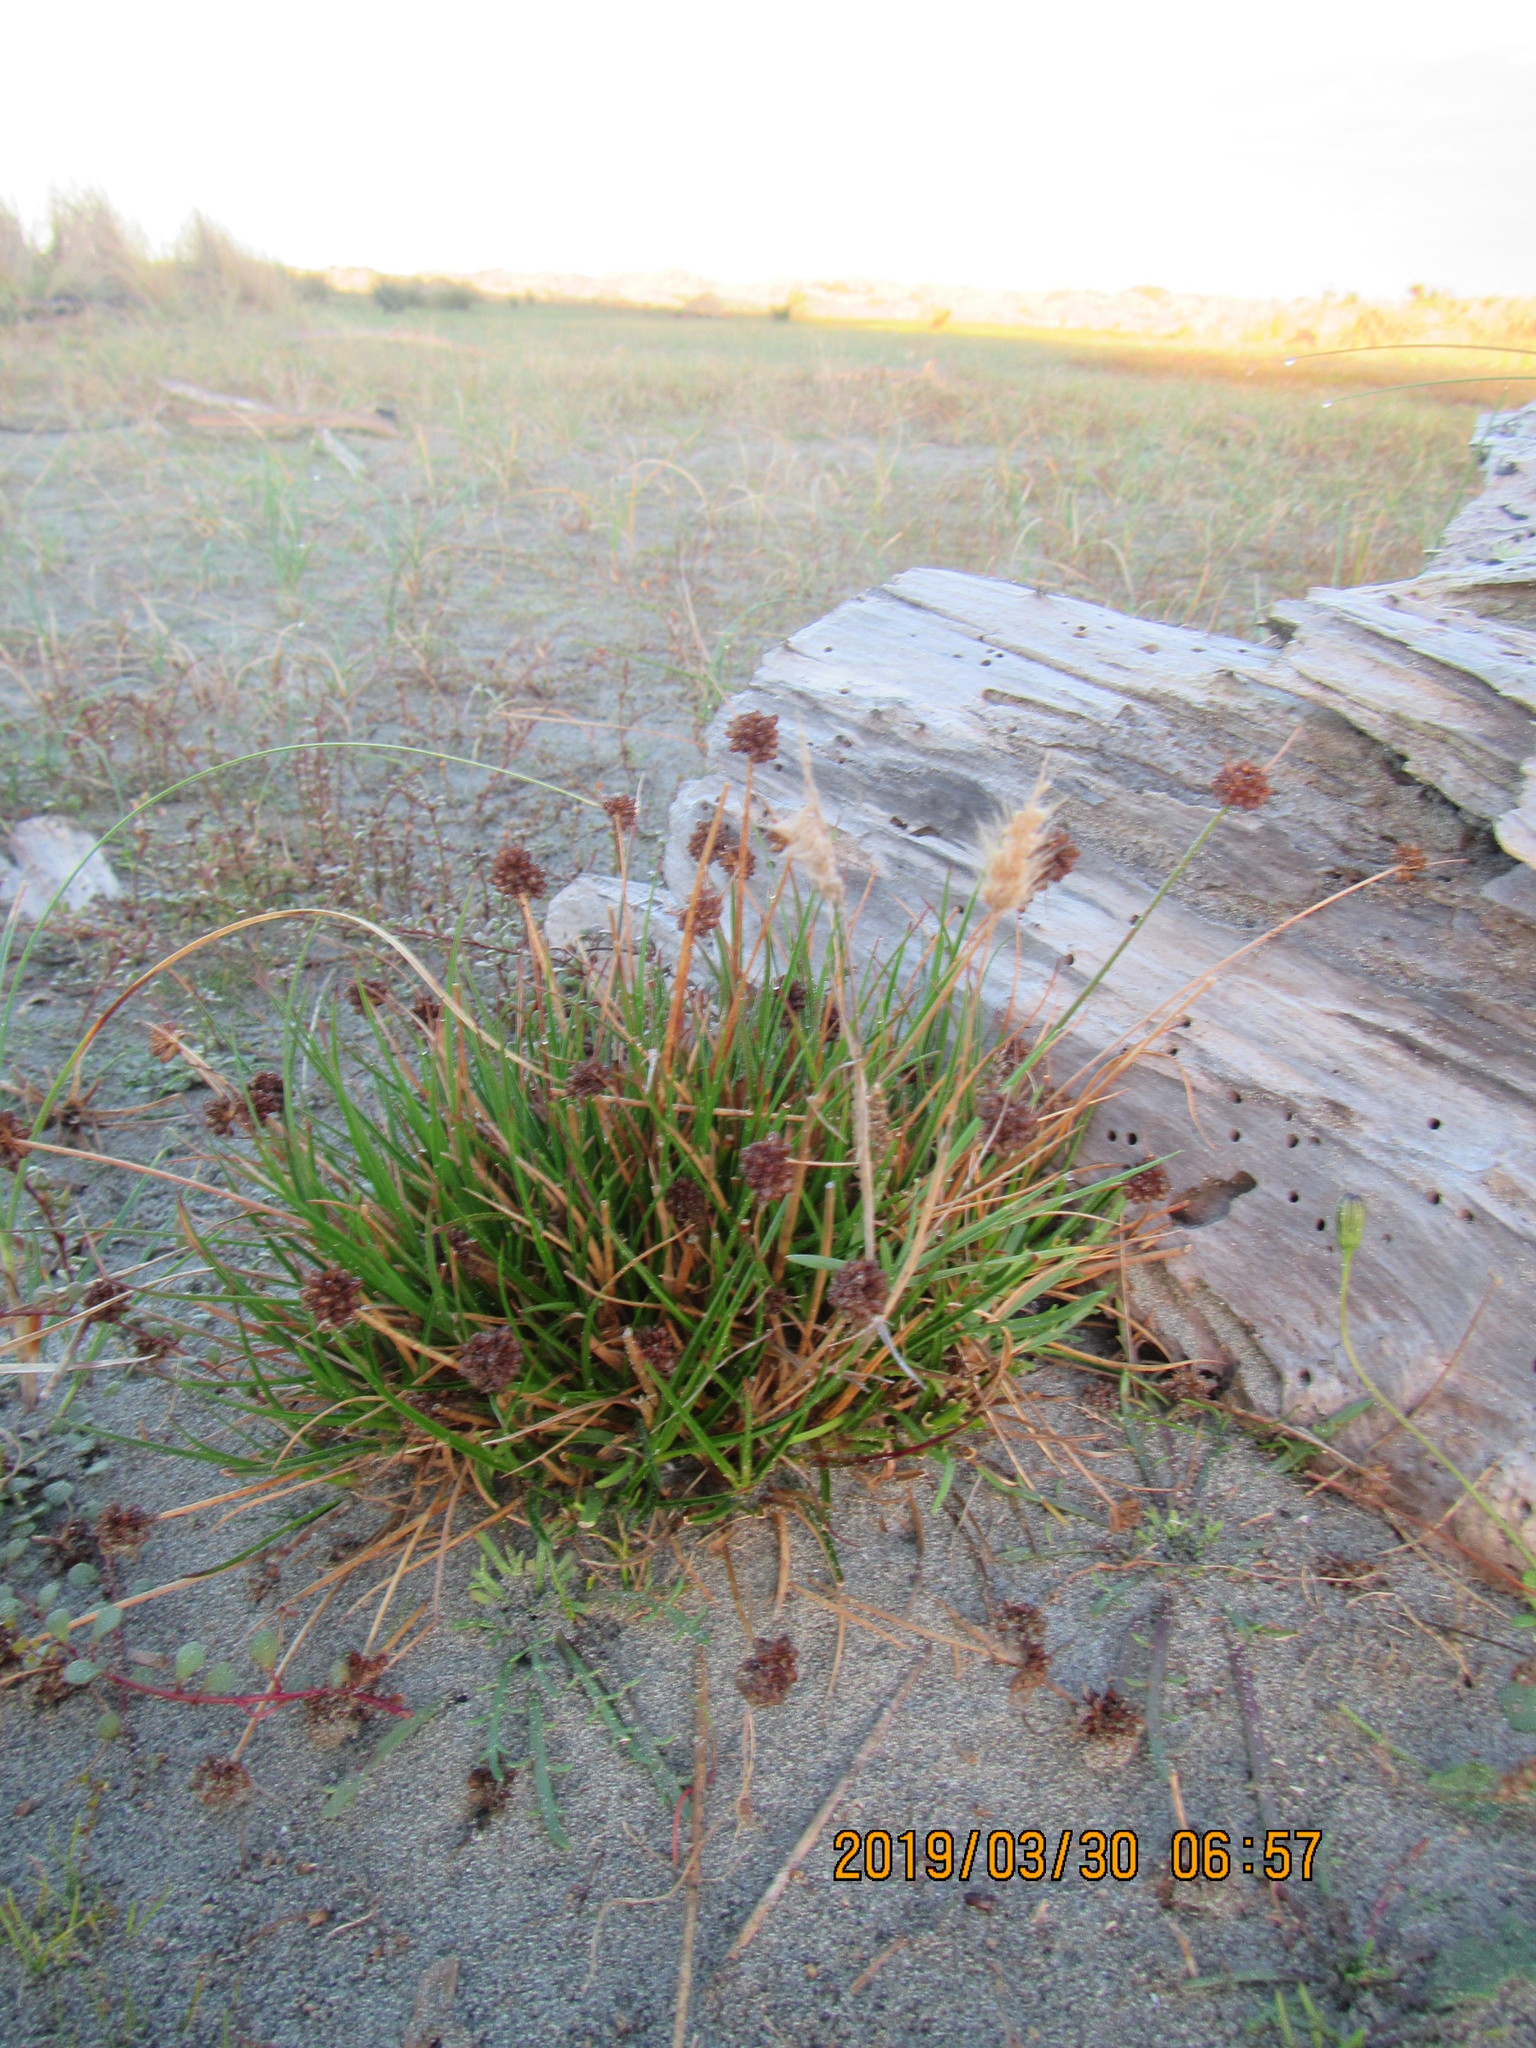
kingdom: Plantae
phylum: Tracheophyta
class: Liliopsida
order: Poales
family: Juncaceae
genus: Juncus
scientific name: Juncus caespiticius
